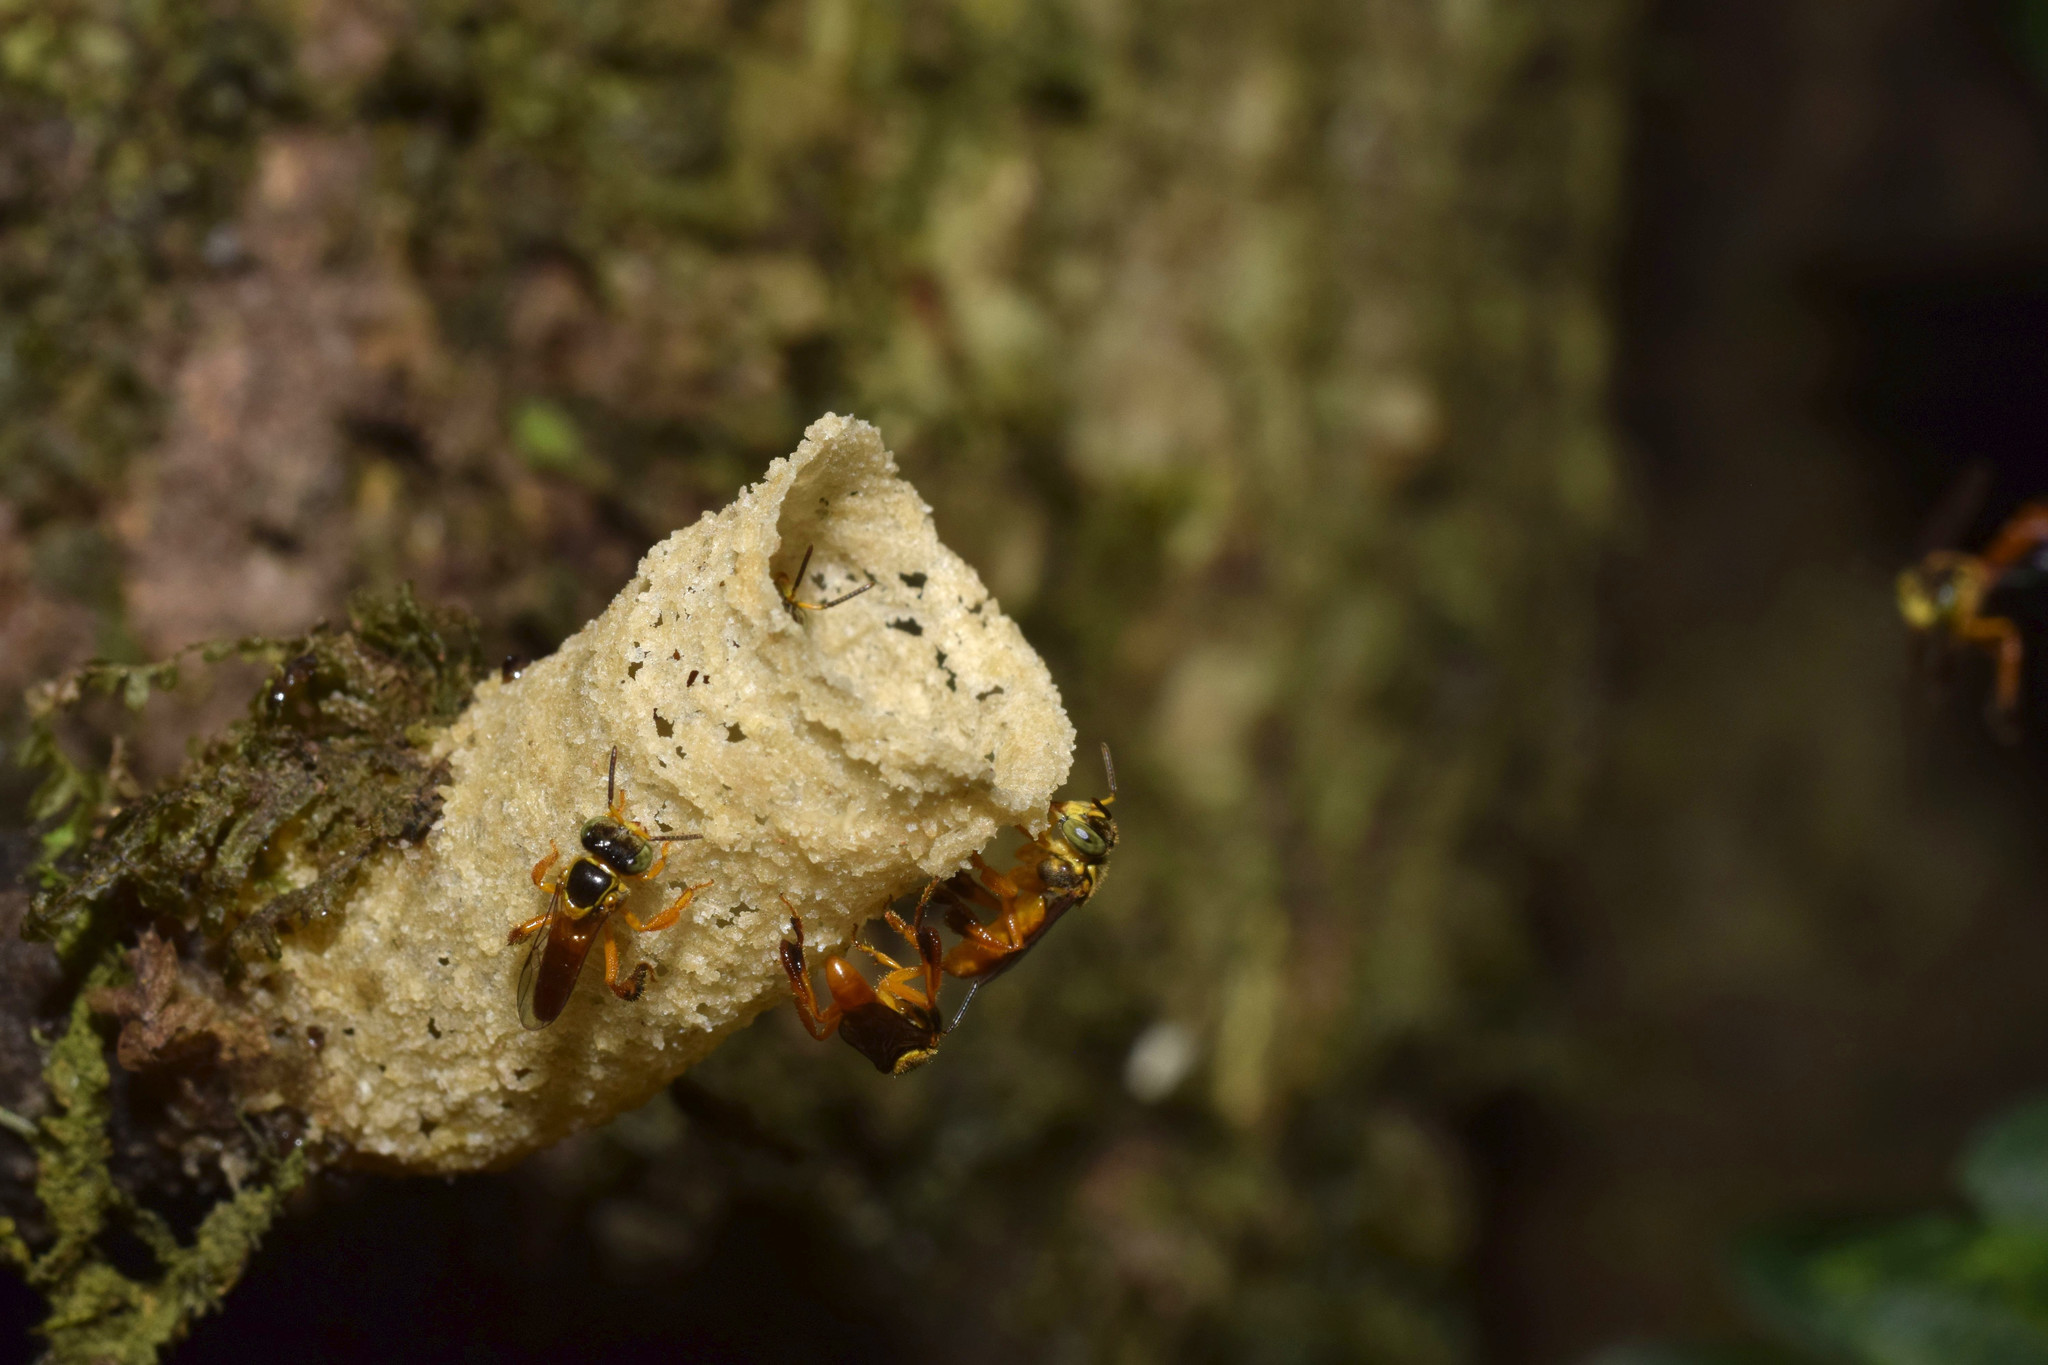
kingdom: Animalia
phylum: Arthropoda
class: Insecta
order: Hymenoptera
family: Apidae
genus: Tetragonisca
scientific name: Tetragonisca angustula
